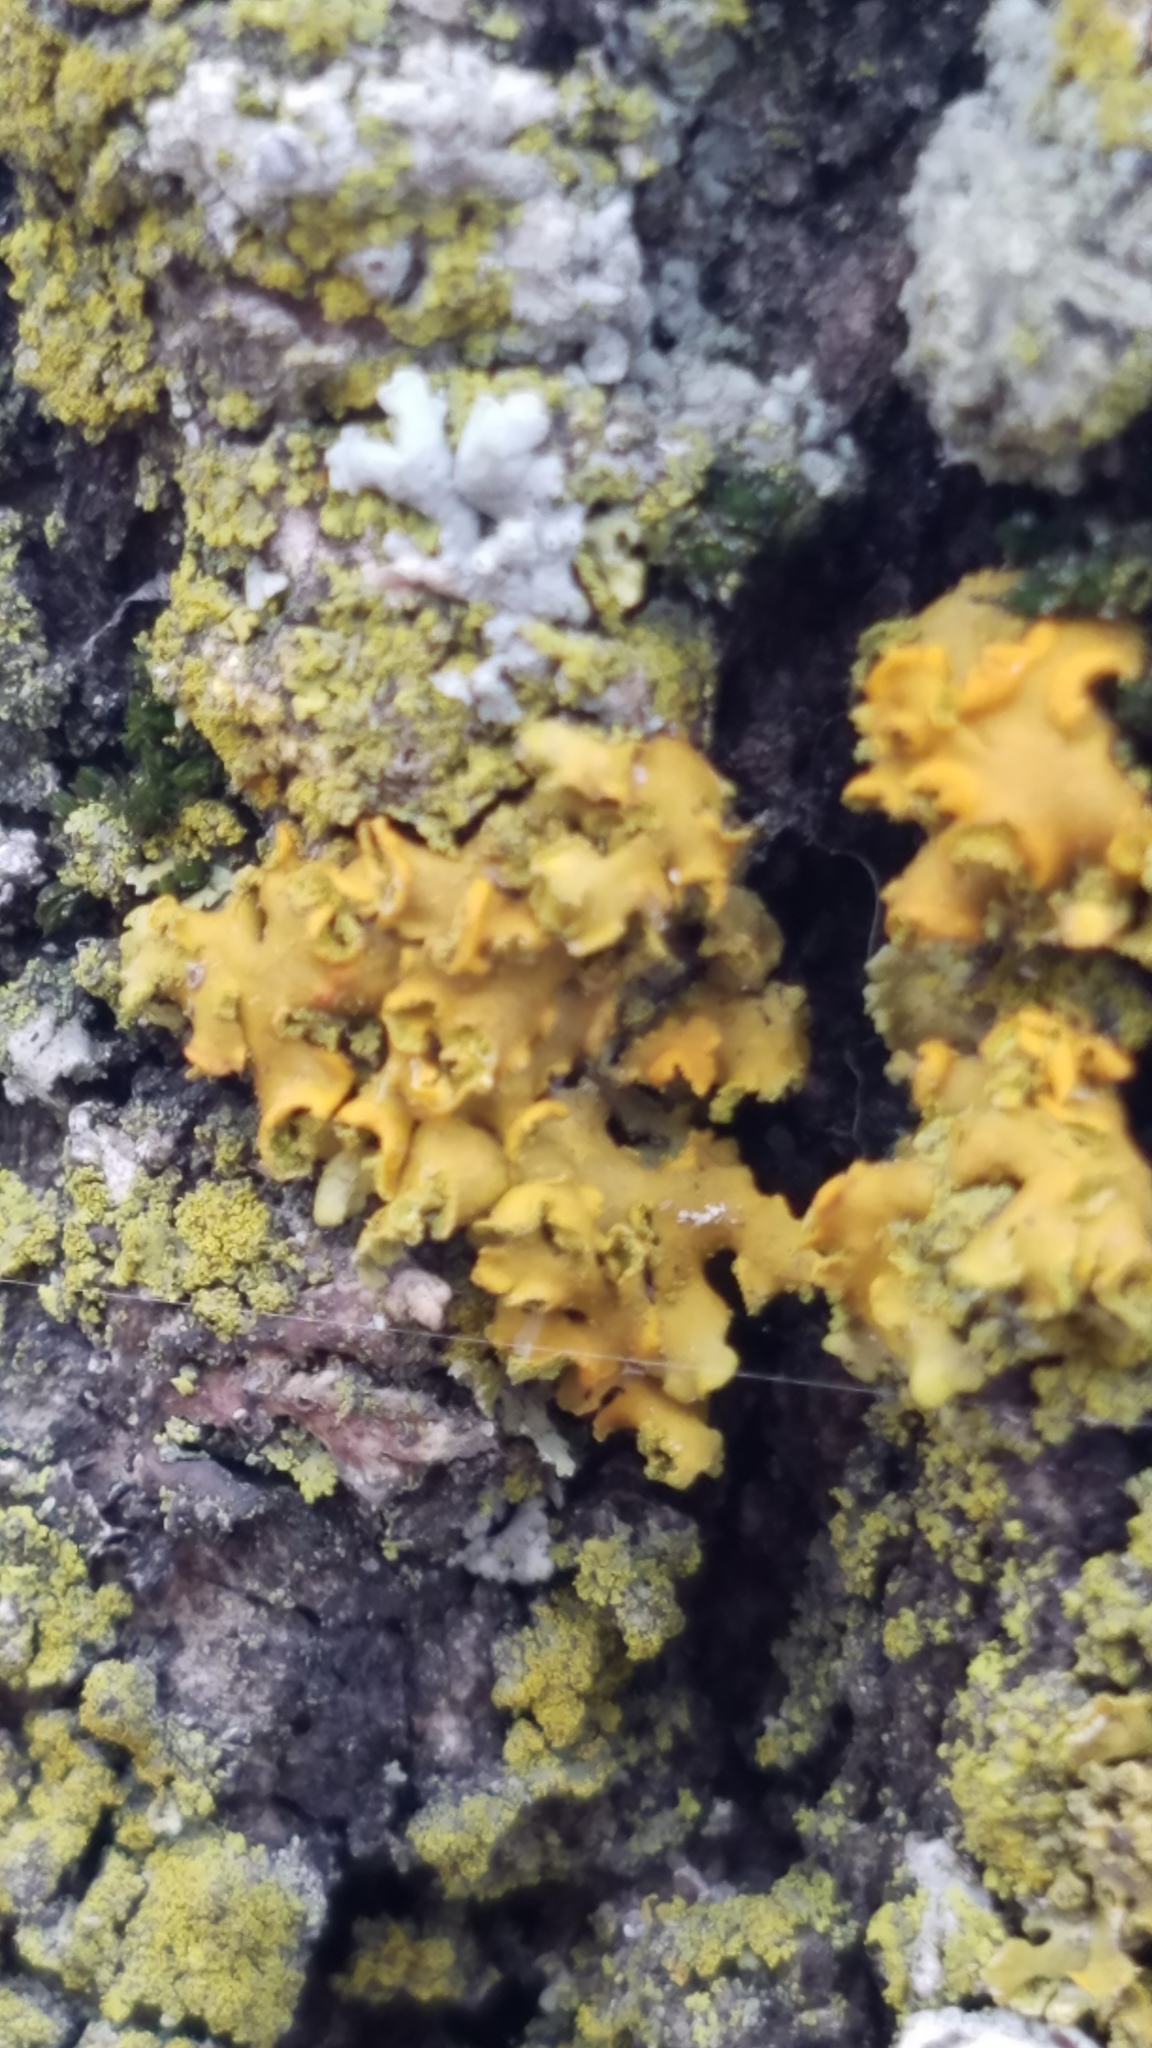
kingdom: Fungi
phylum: Ascomycota
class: Lecanoromycetes
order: Teloschistales
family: Teloschistaceae
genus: Oxneria
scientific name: Oxneria fallax
